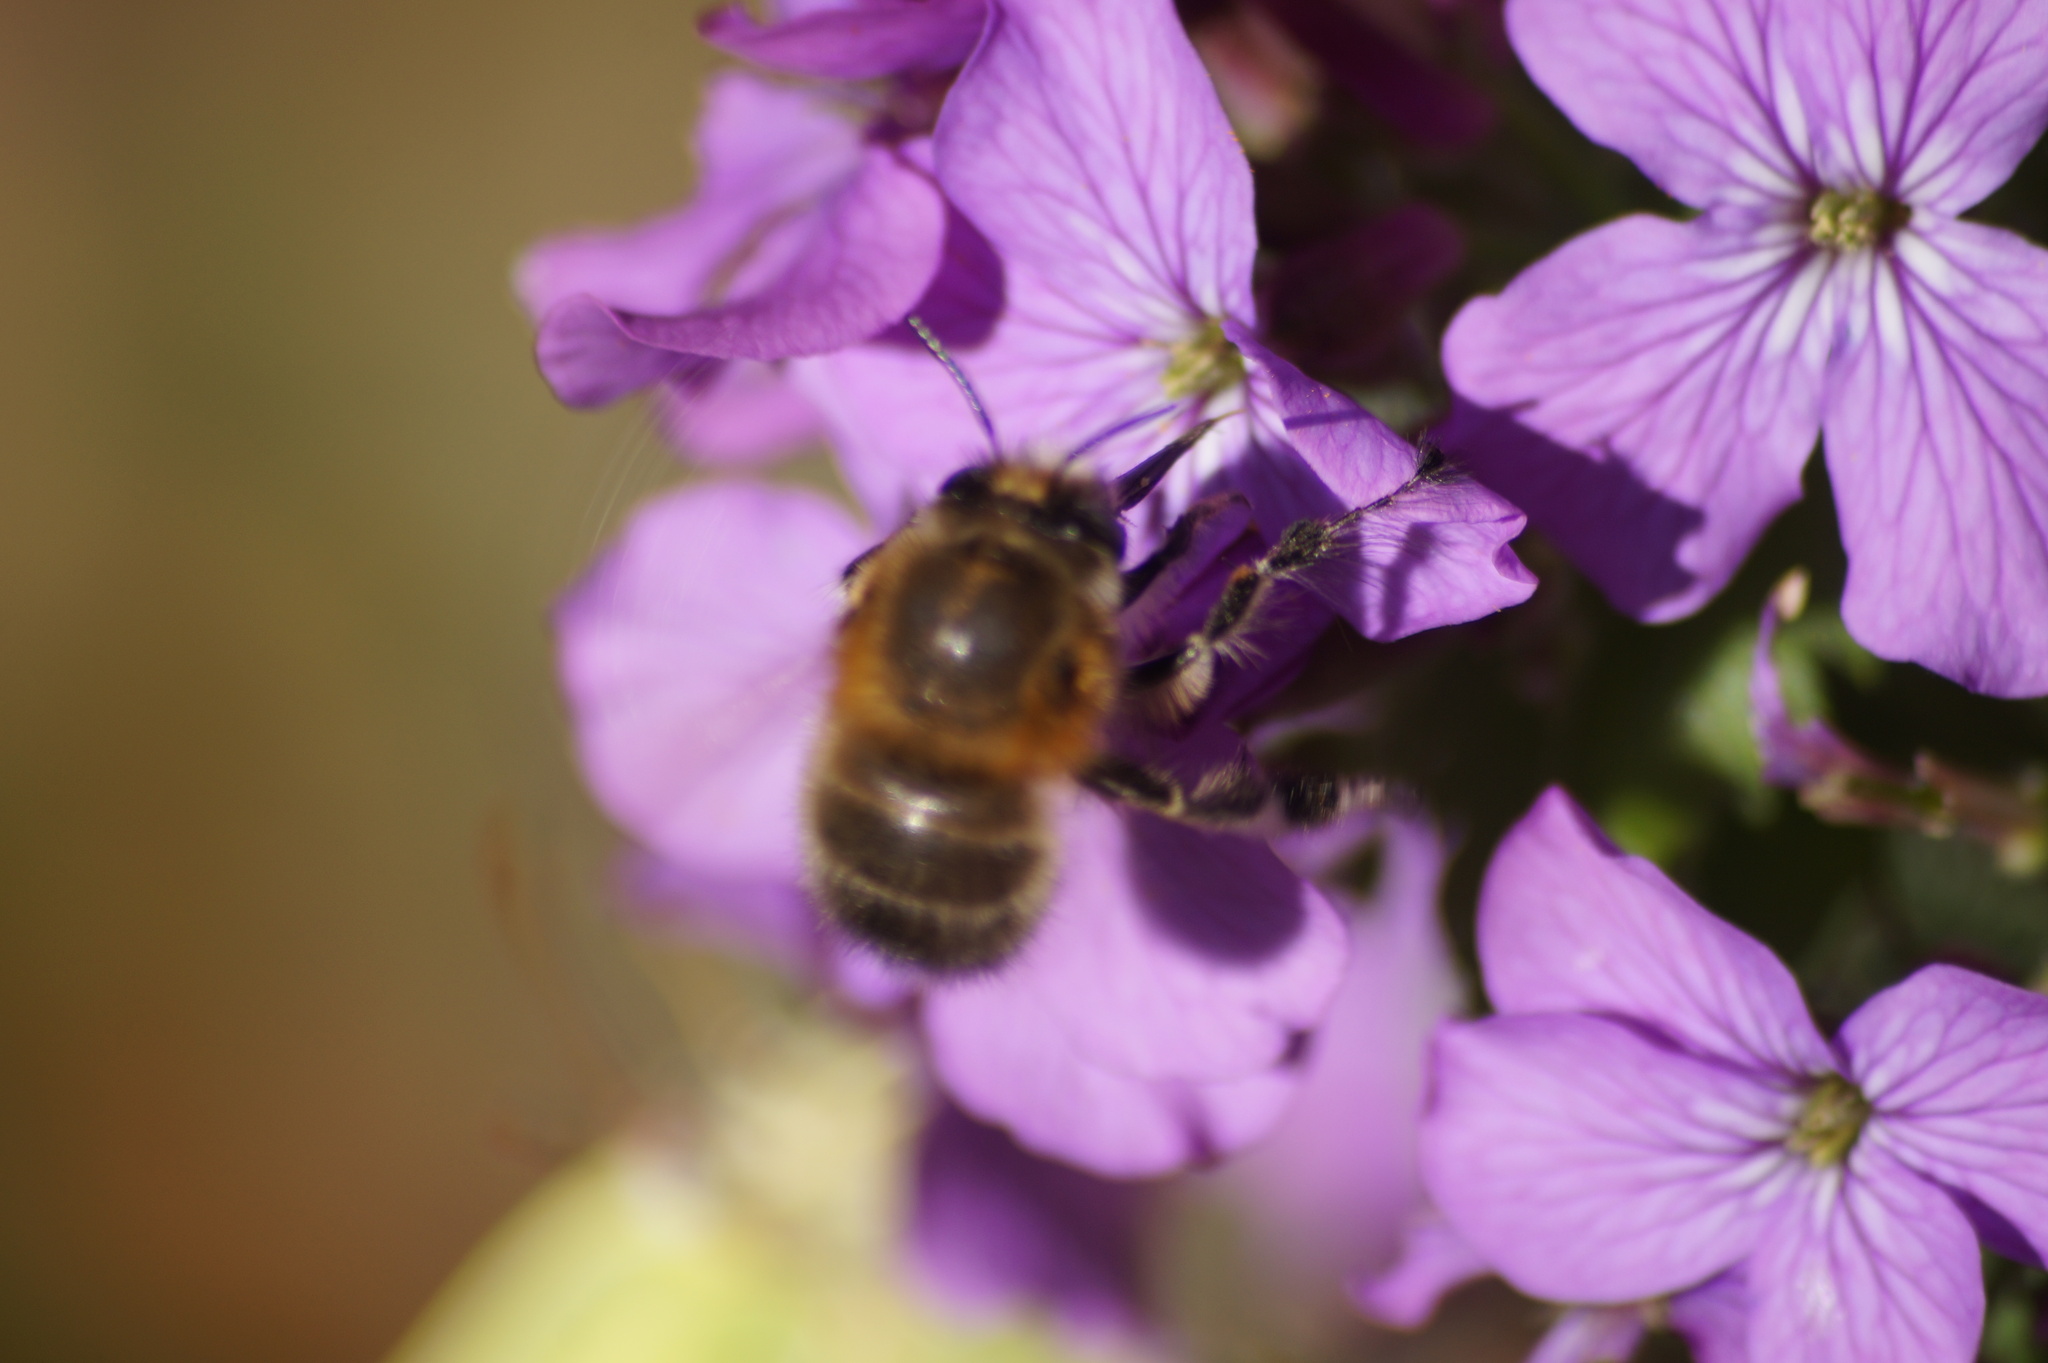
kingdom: Animalia
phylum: Arthropoda
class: Insecta
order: Hymenoptera
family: Apidae
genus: Anthophora
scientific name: Anthophora plumipes
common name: Hairy-footed flower bee
